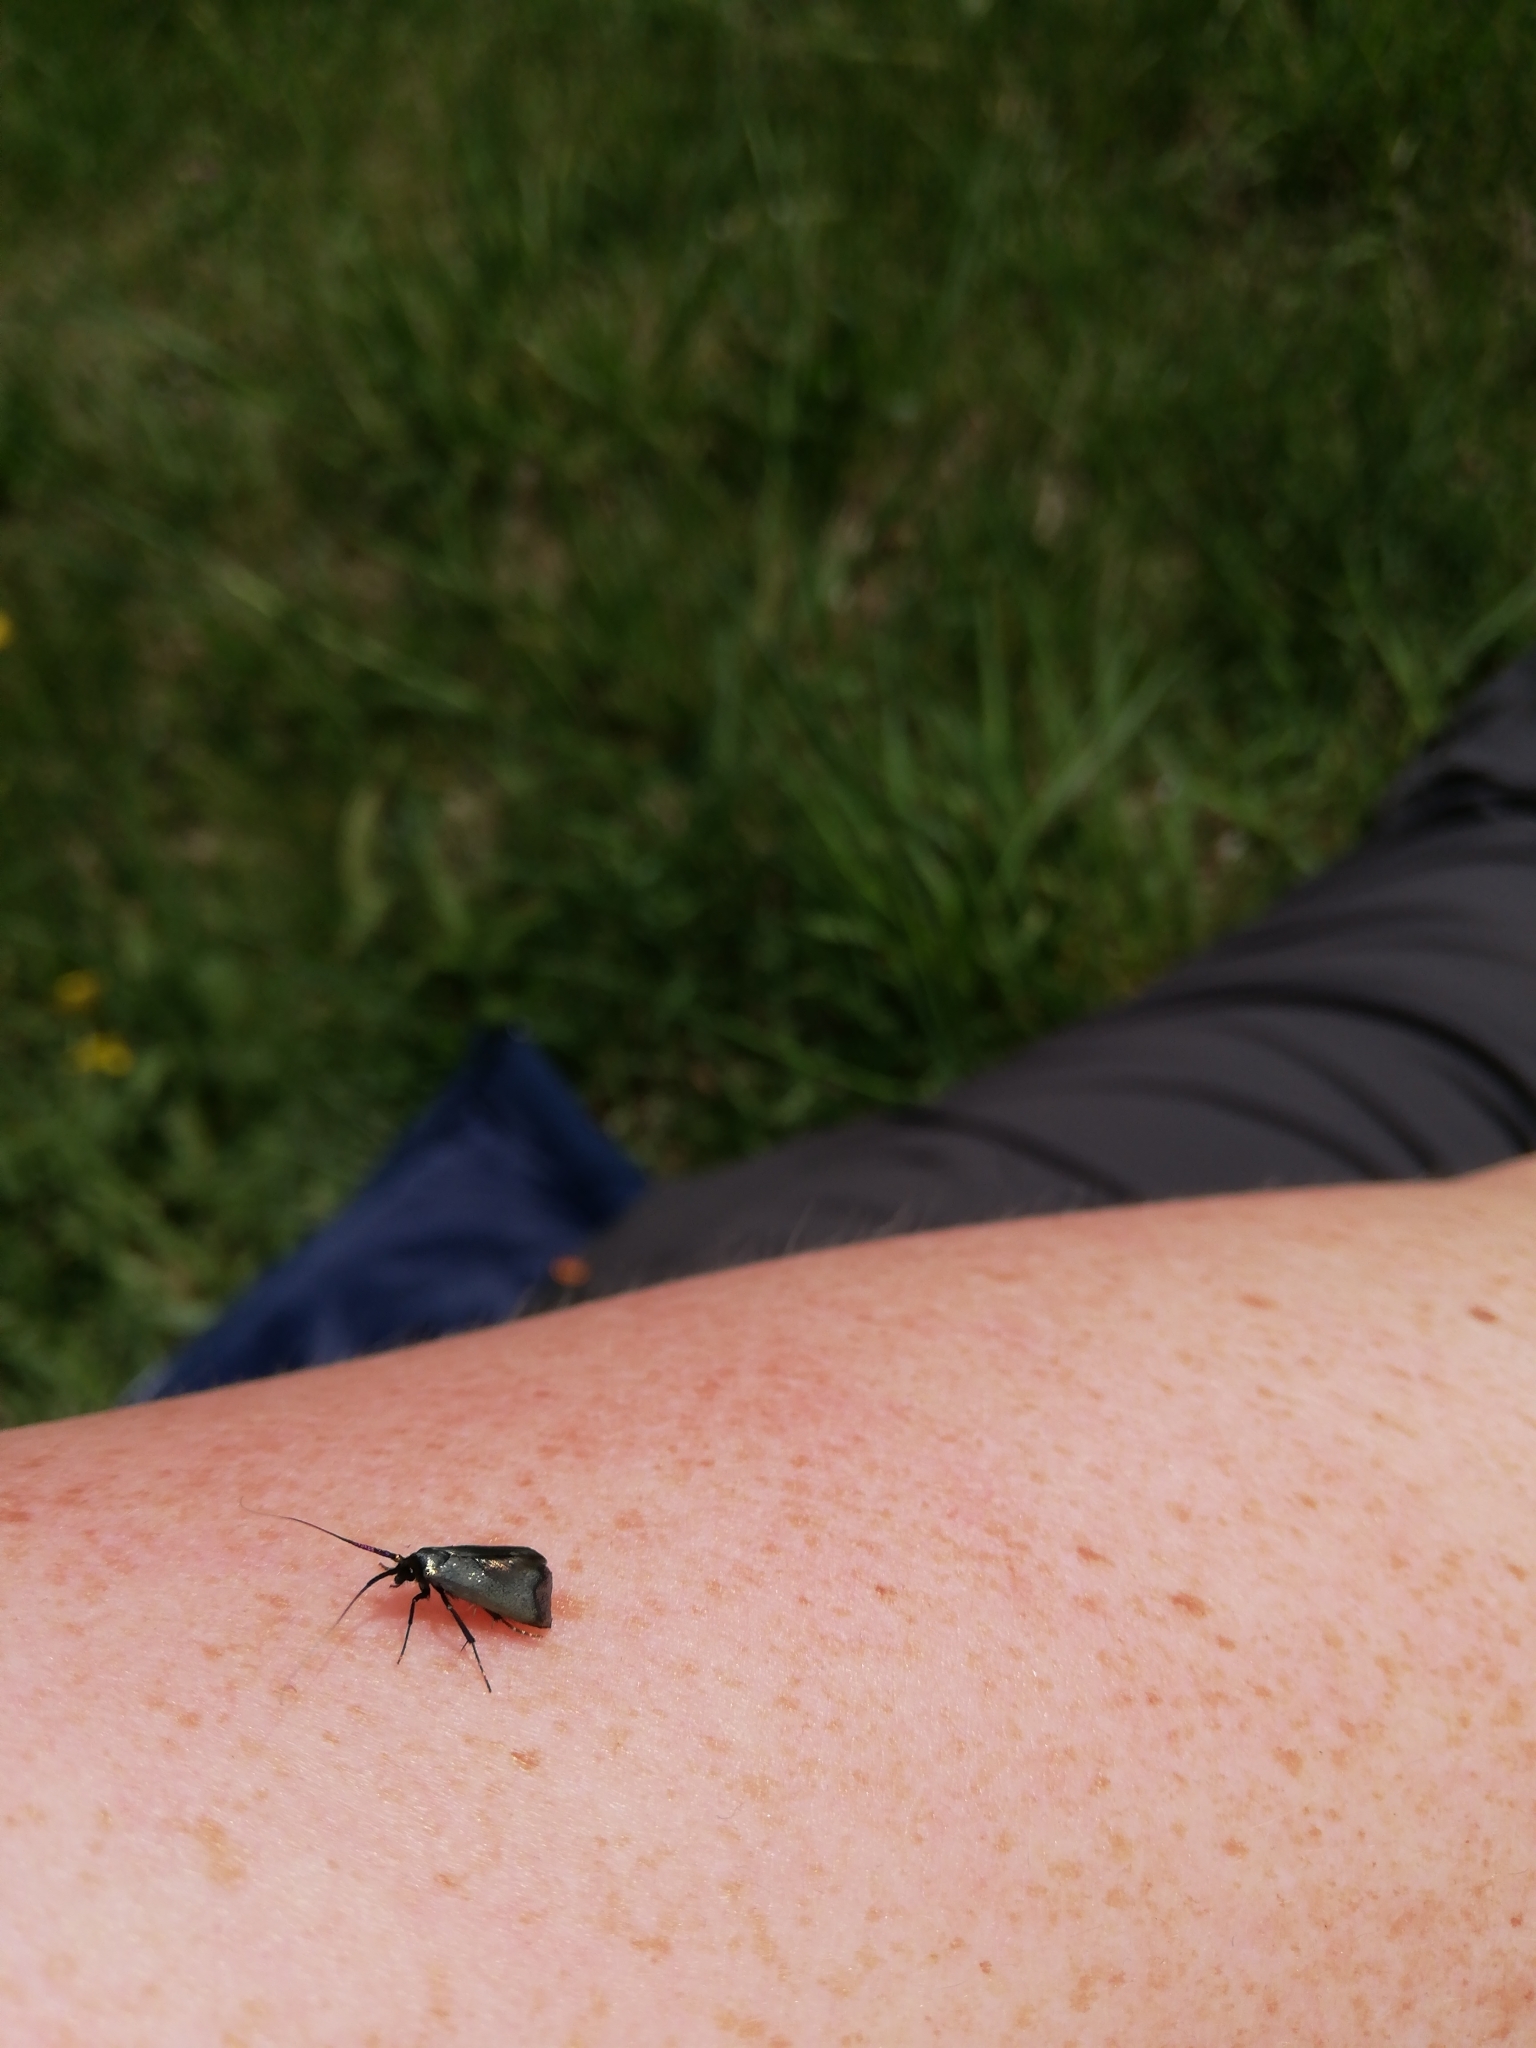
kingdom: Animalia
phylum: Arthropoda
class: Insecta
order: Lepidoptera
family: Adelidae
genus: Adela
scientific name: Adela viridella
